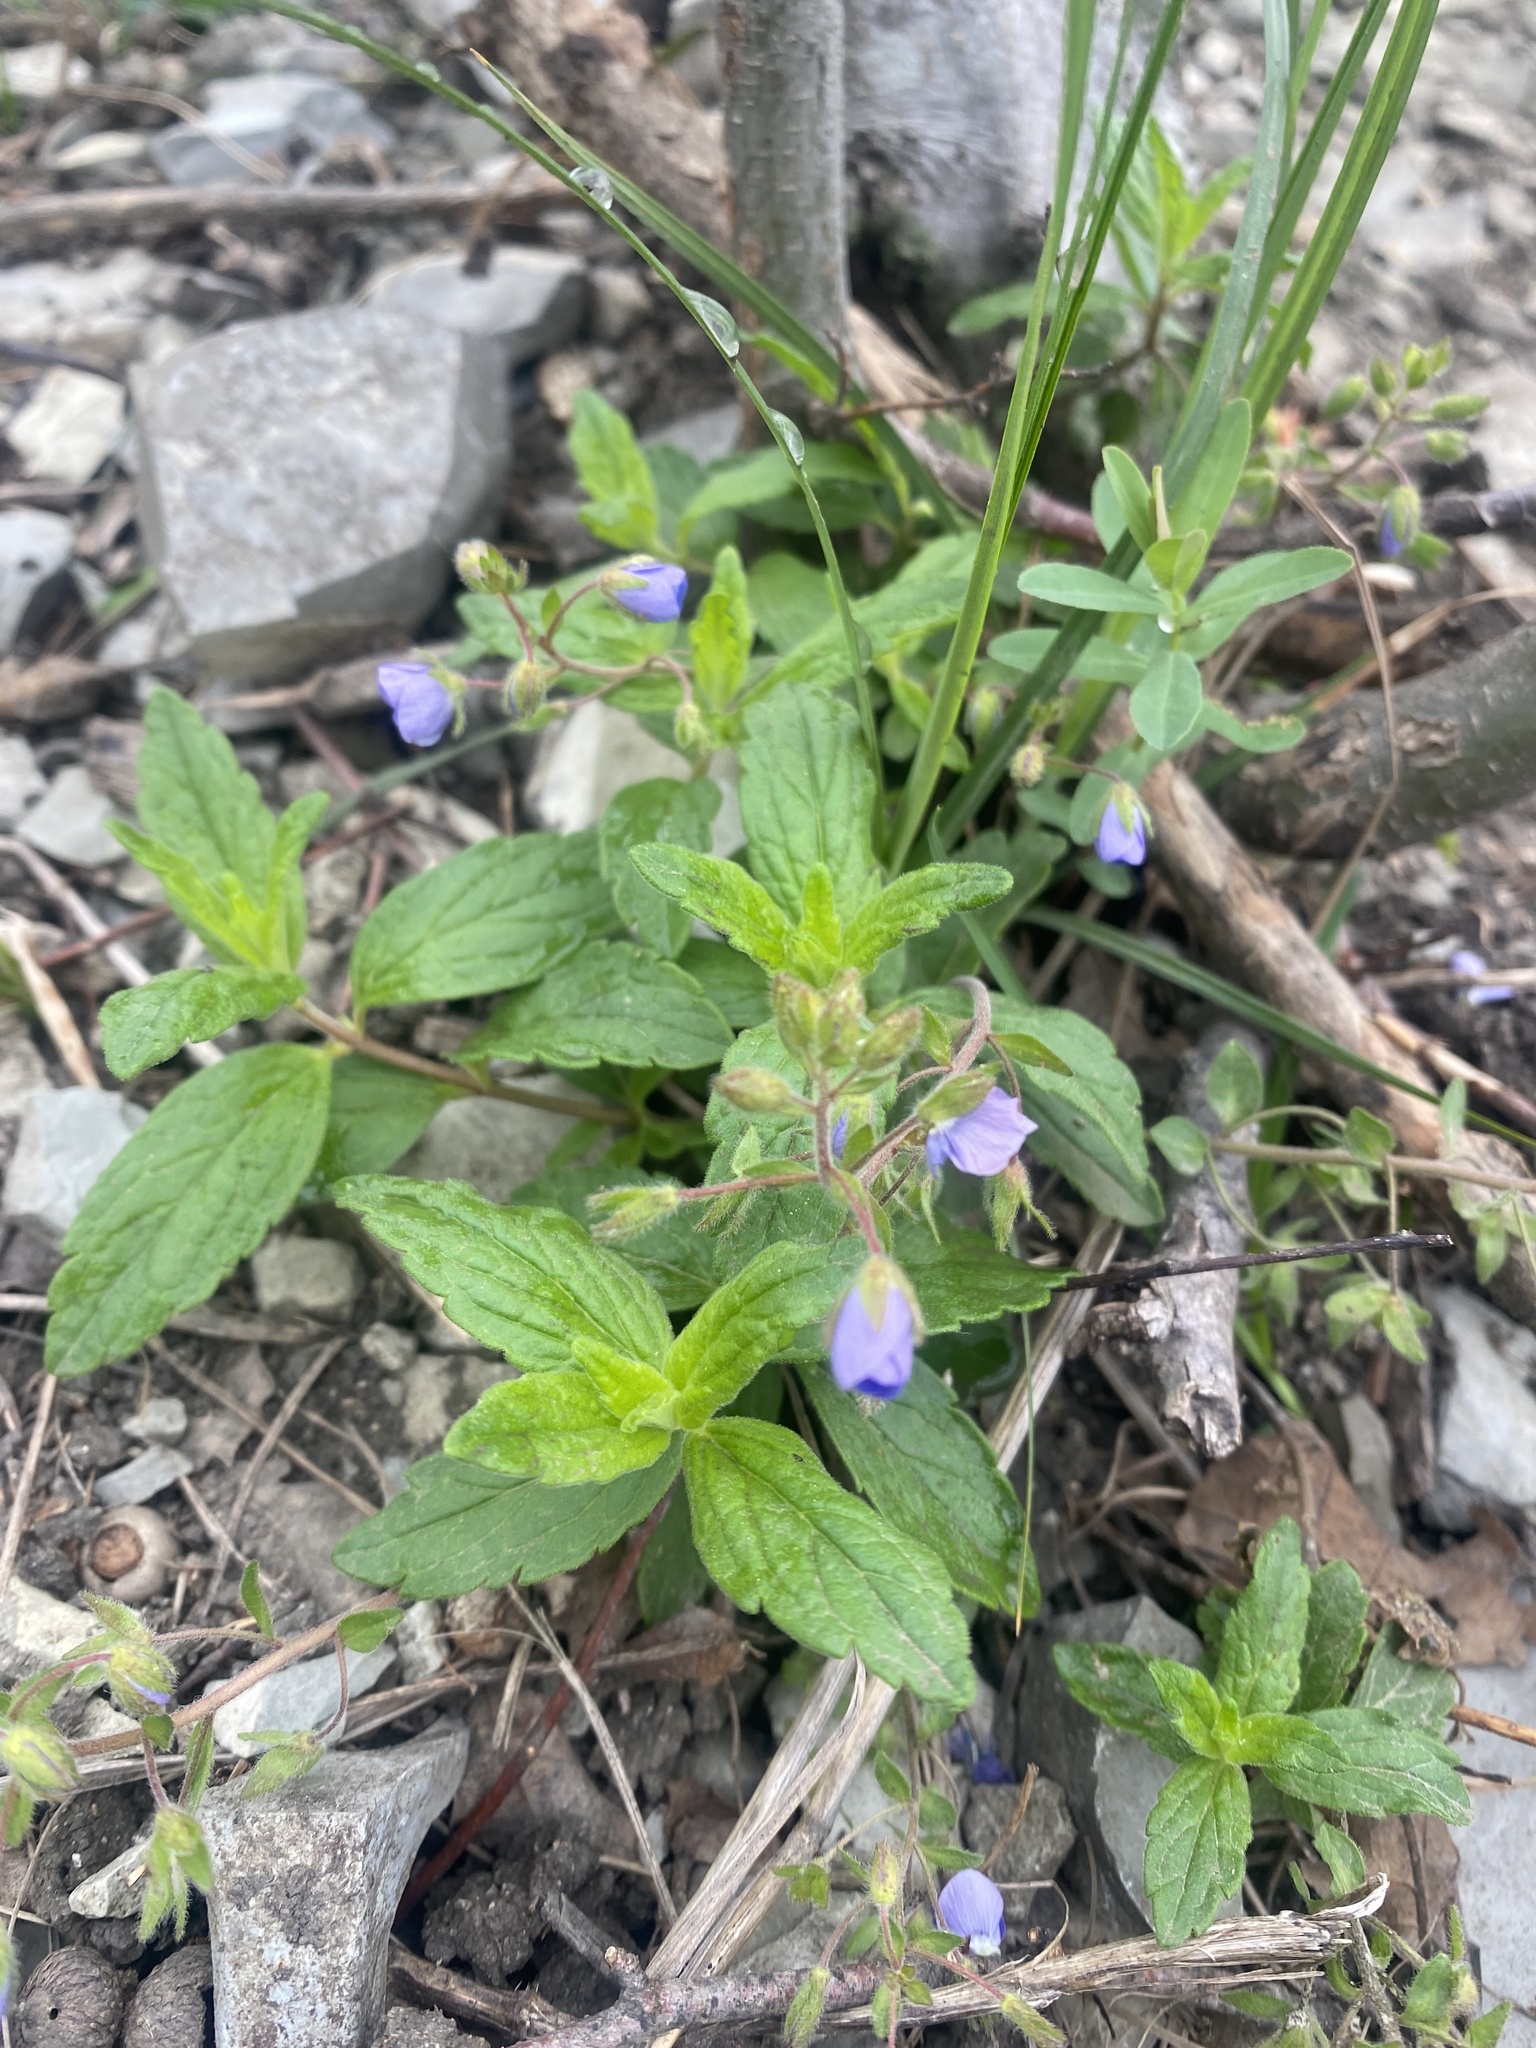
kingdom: Plantae
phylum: Tracheophyta
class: Magnoliopsida
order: Lamiales
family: Plantaginaceae
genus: Veronica
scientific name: Veronica
